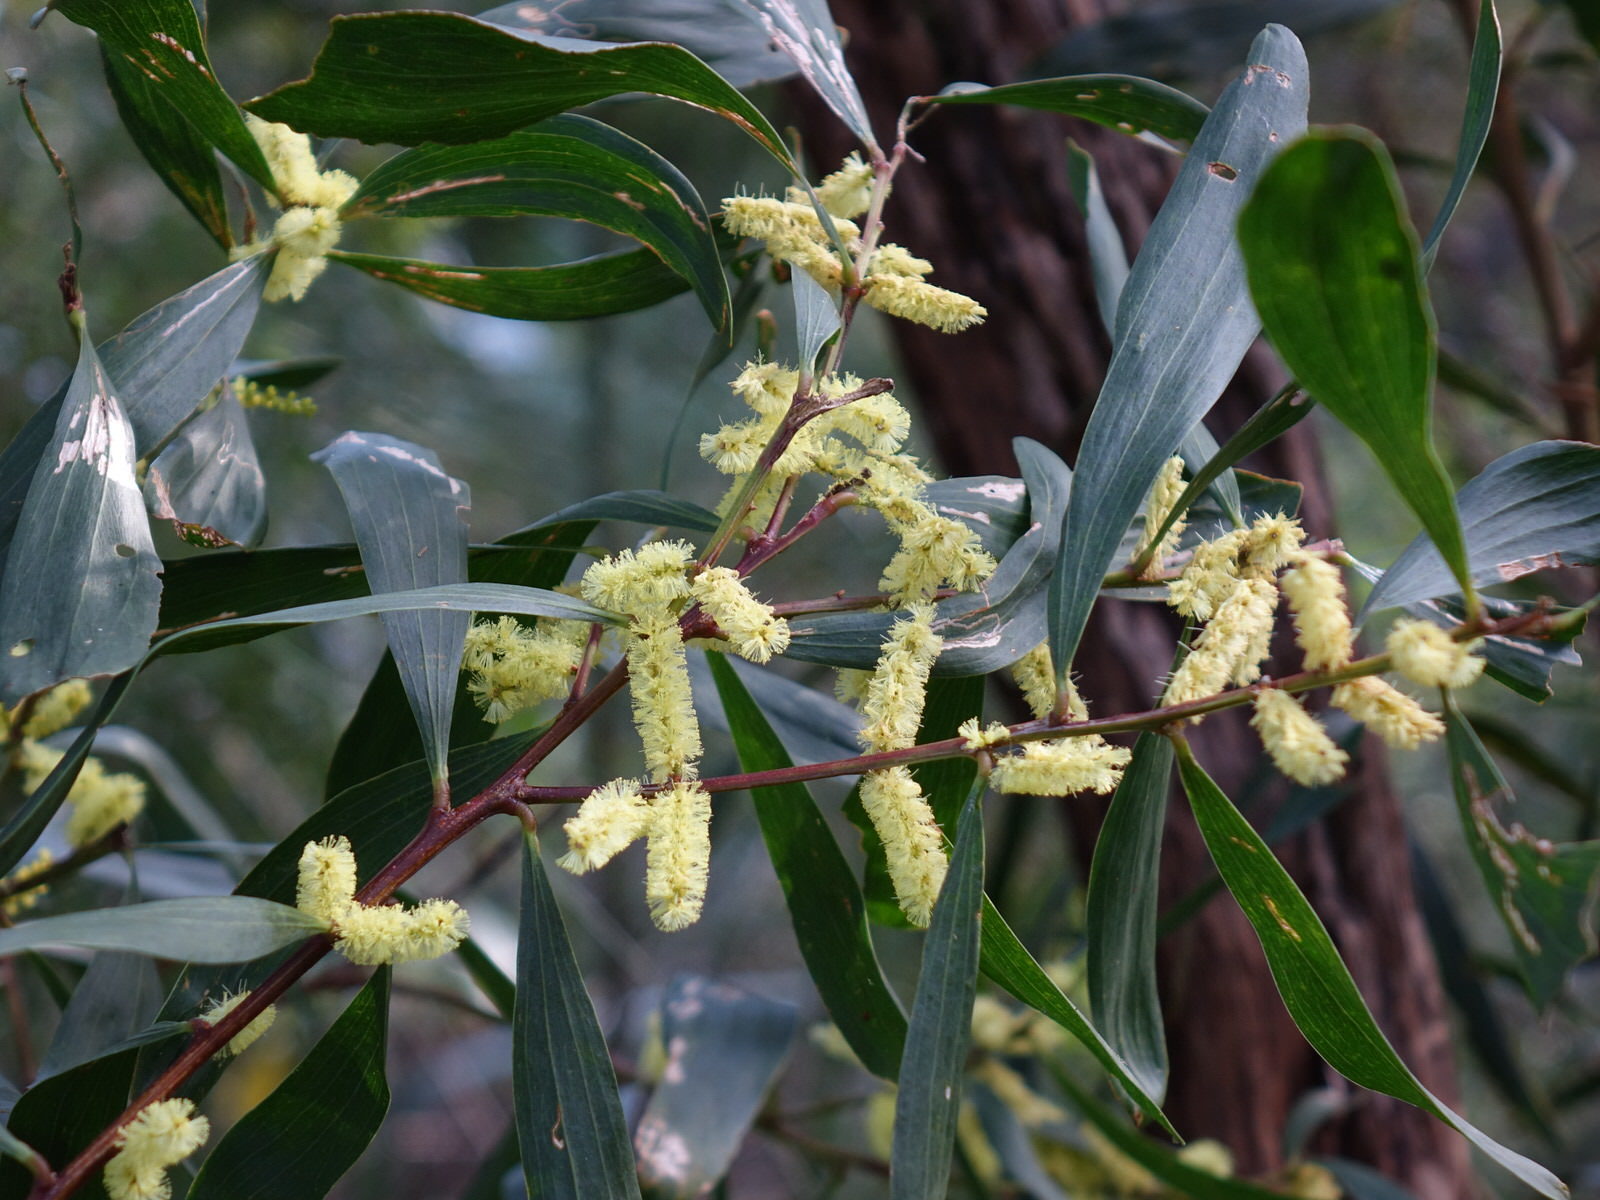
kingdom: Plantae
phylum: Tracheophyta
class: Magnoliopsida
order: Fabales
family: Fabaceae
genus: Acacia
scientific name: Acacia longifolia
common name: Sydney golden wattle
